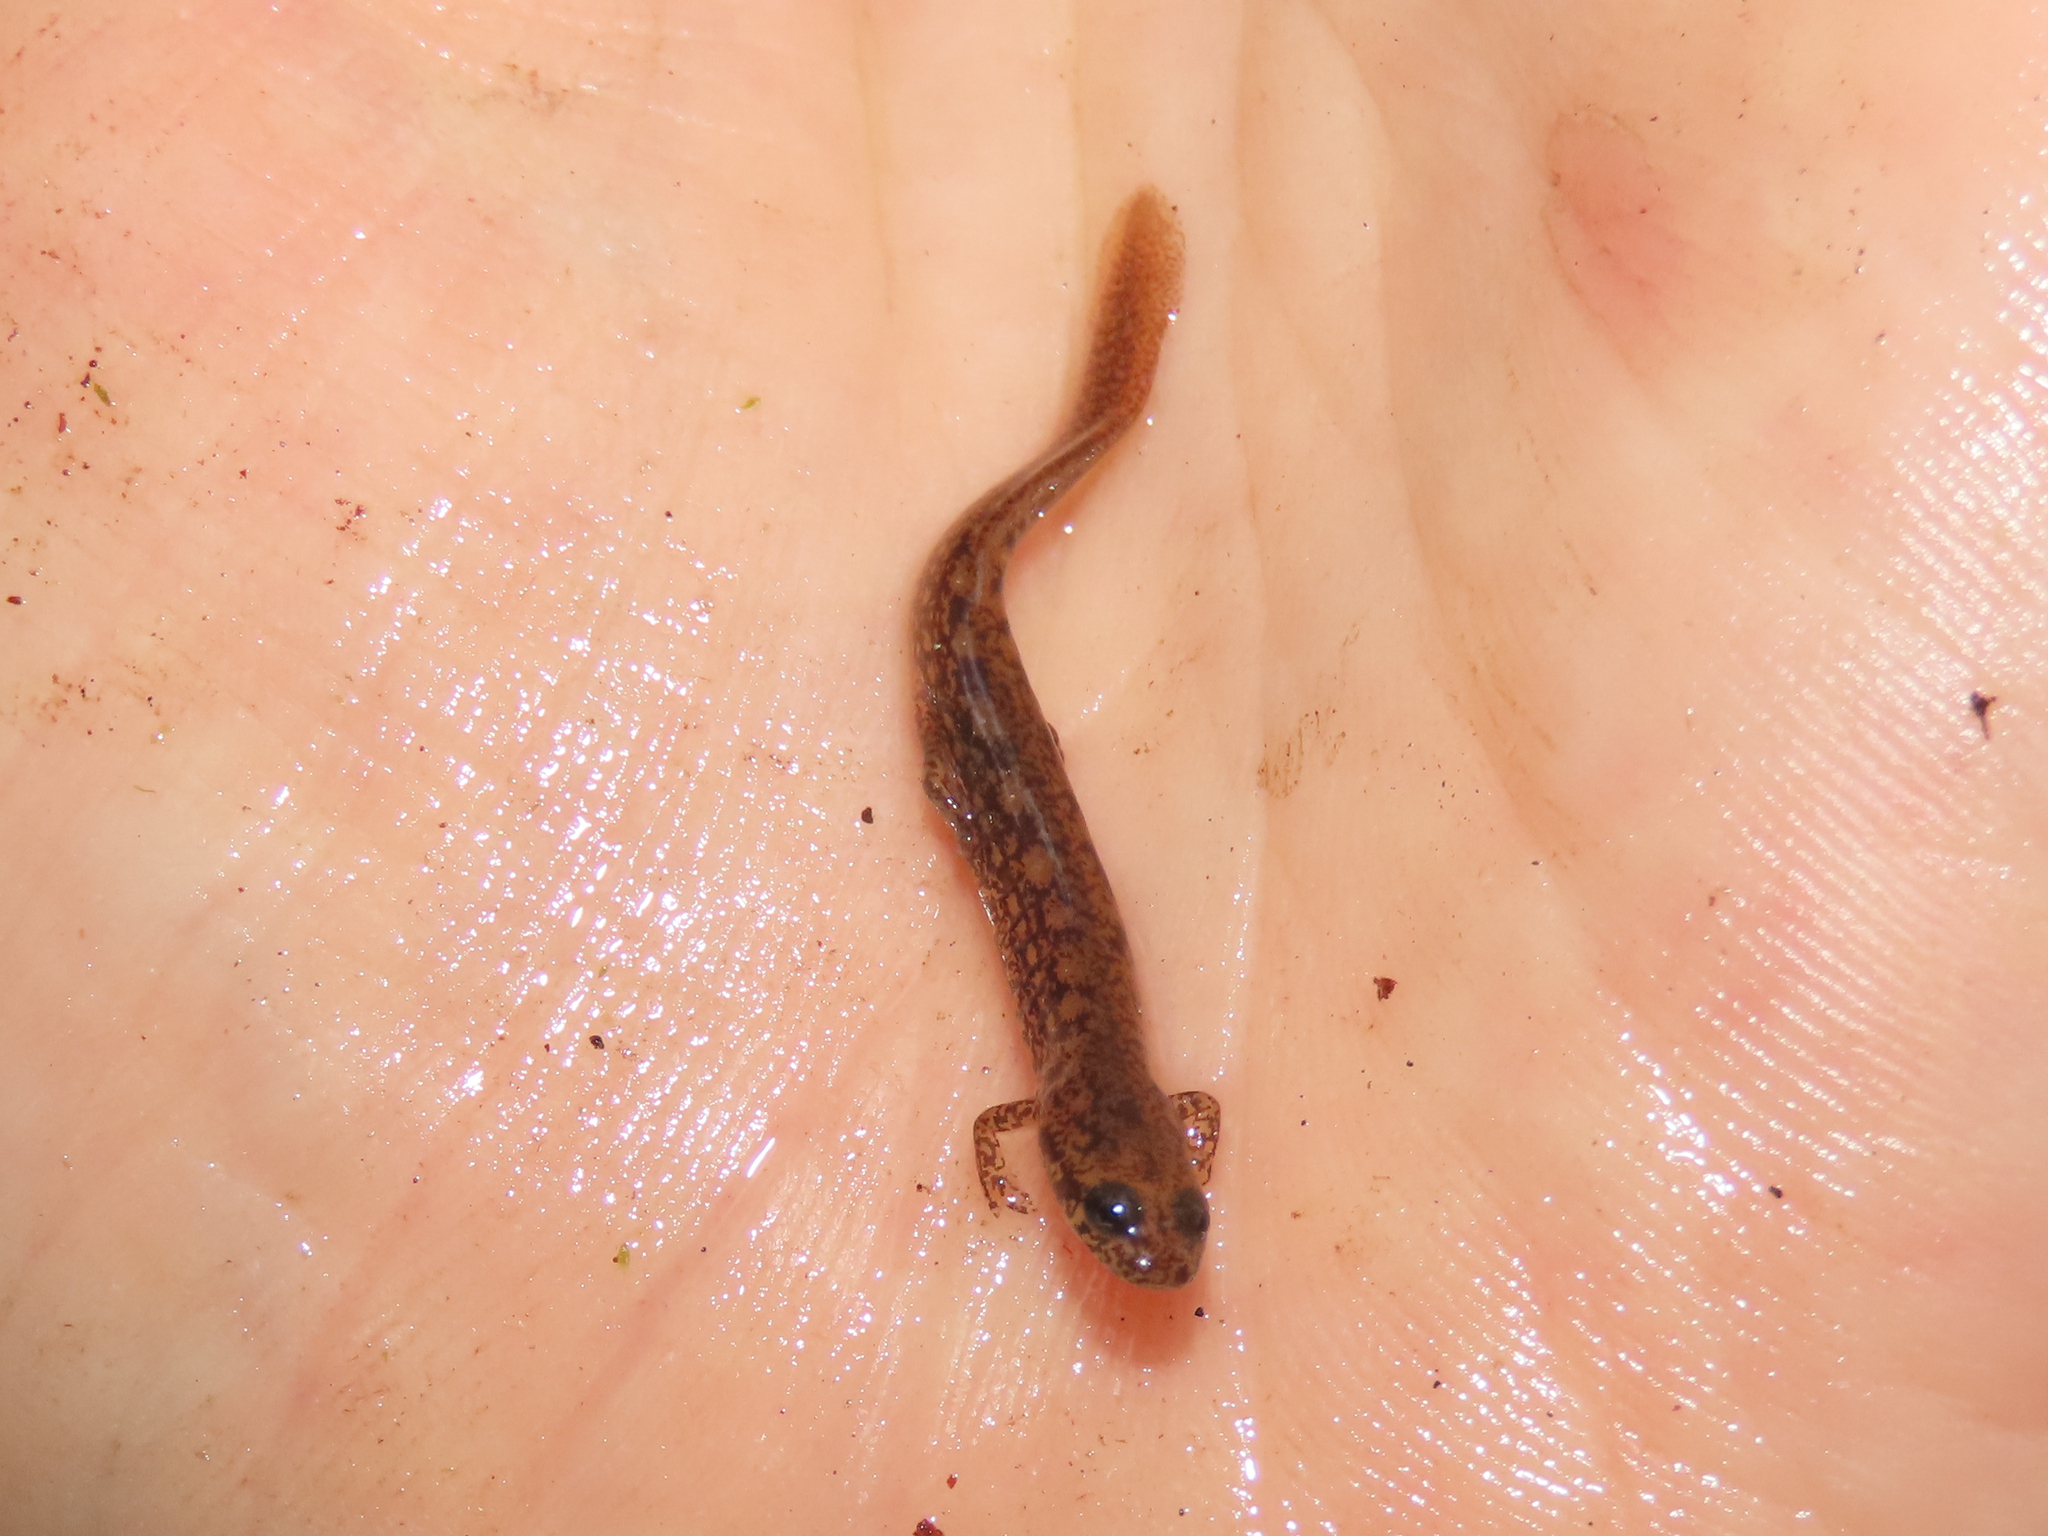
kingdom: Animalia
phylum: Chordata
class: Amphibia
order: Caudata
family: Plethodontidae
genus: Eurycea
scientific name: Eurycea bislineata
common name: Northern two-lined salamander
